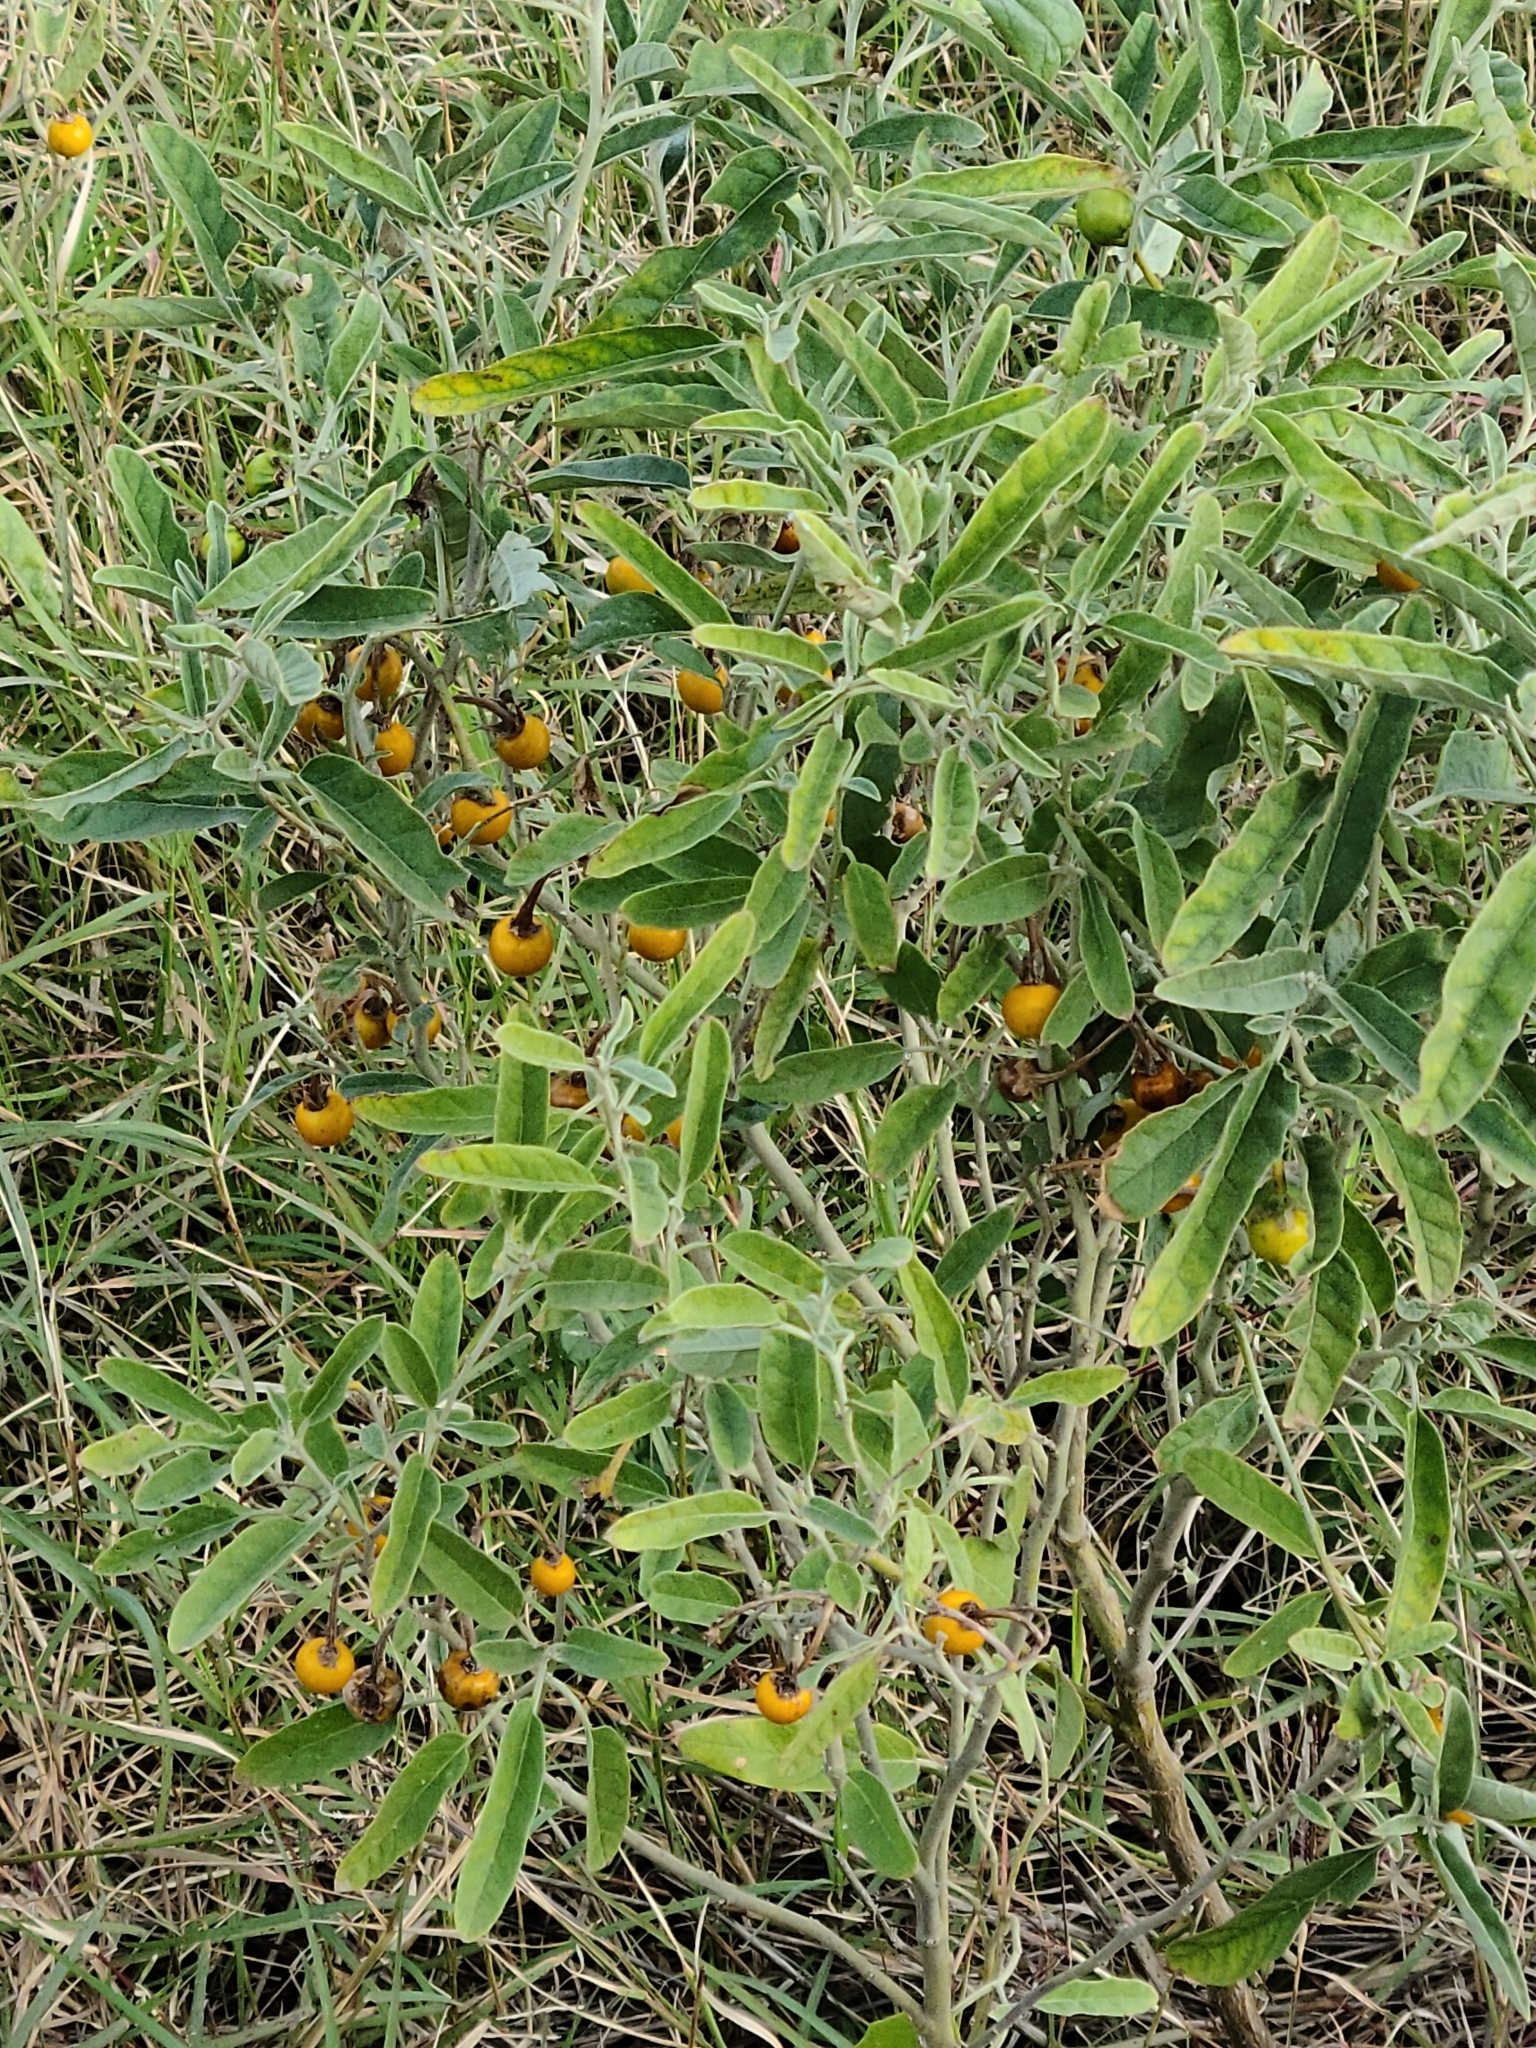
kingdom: Plantae
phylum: Tracheophyta
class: Magnoliopsida
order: Solanales
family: Solanaceae
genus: Solanum
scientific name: Solanum elaeagnifolium
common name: Silverleaf nightshade
